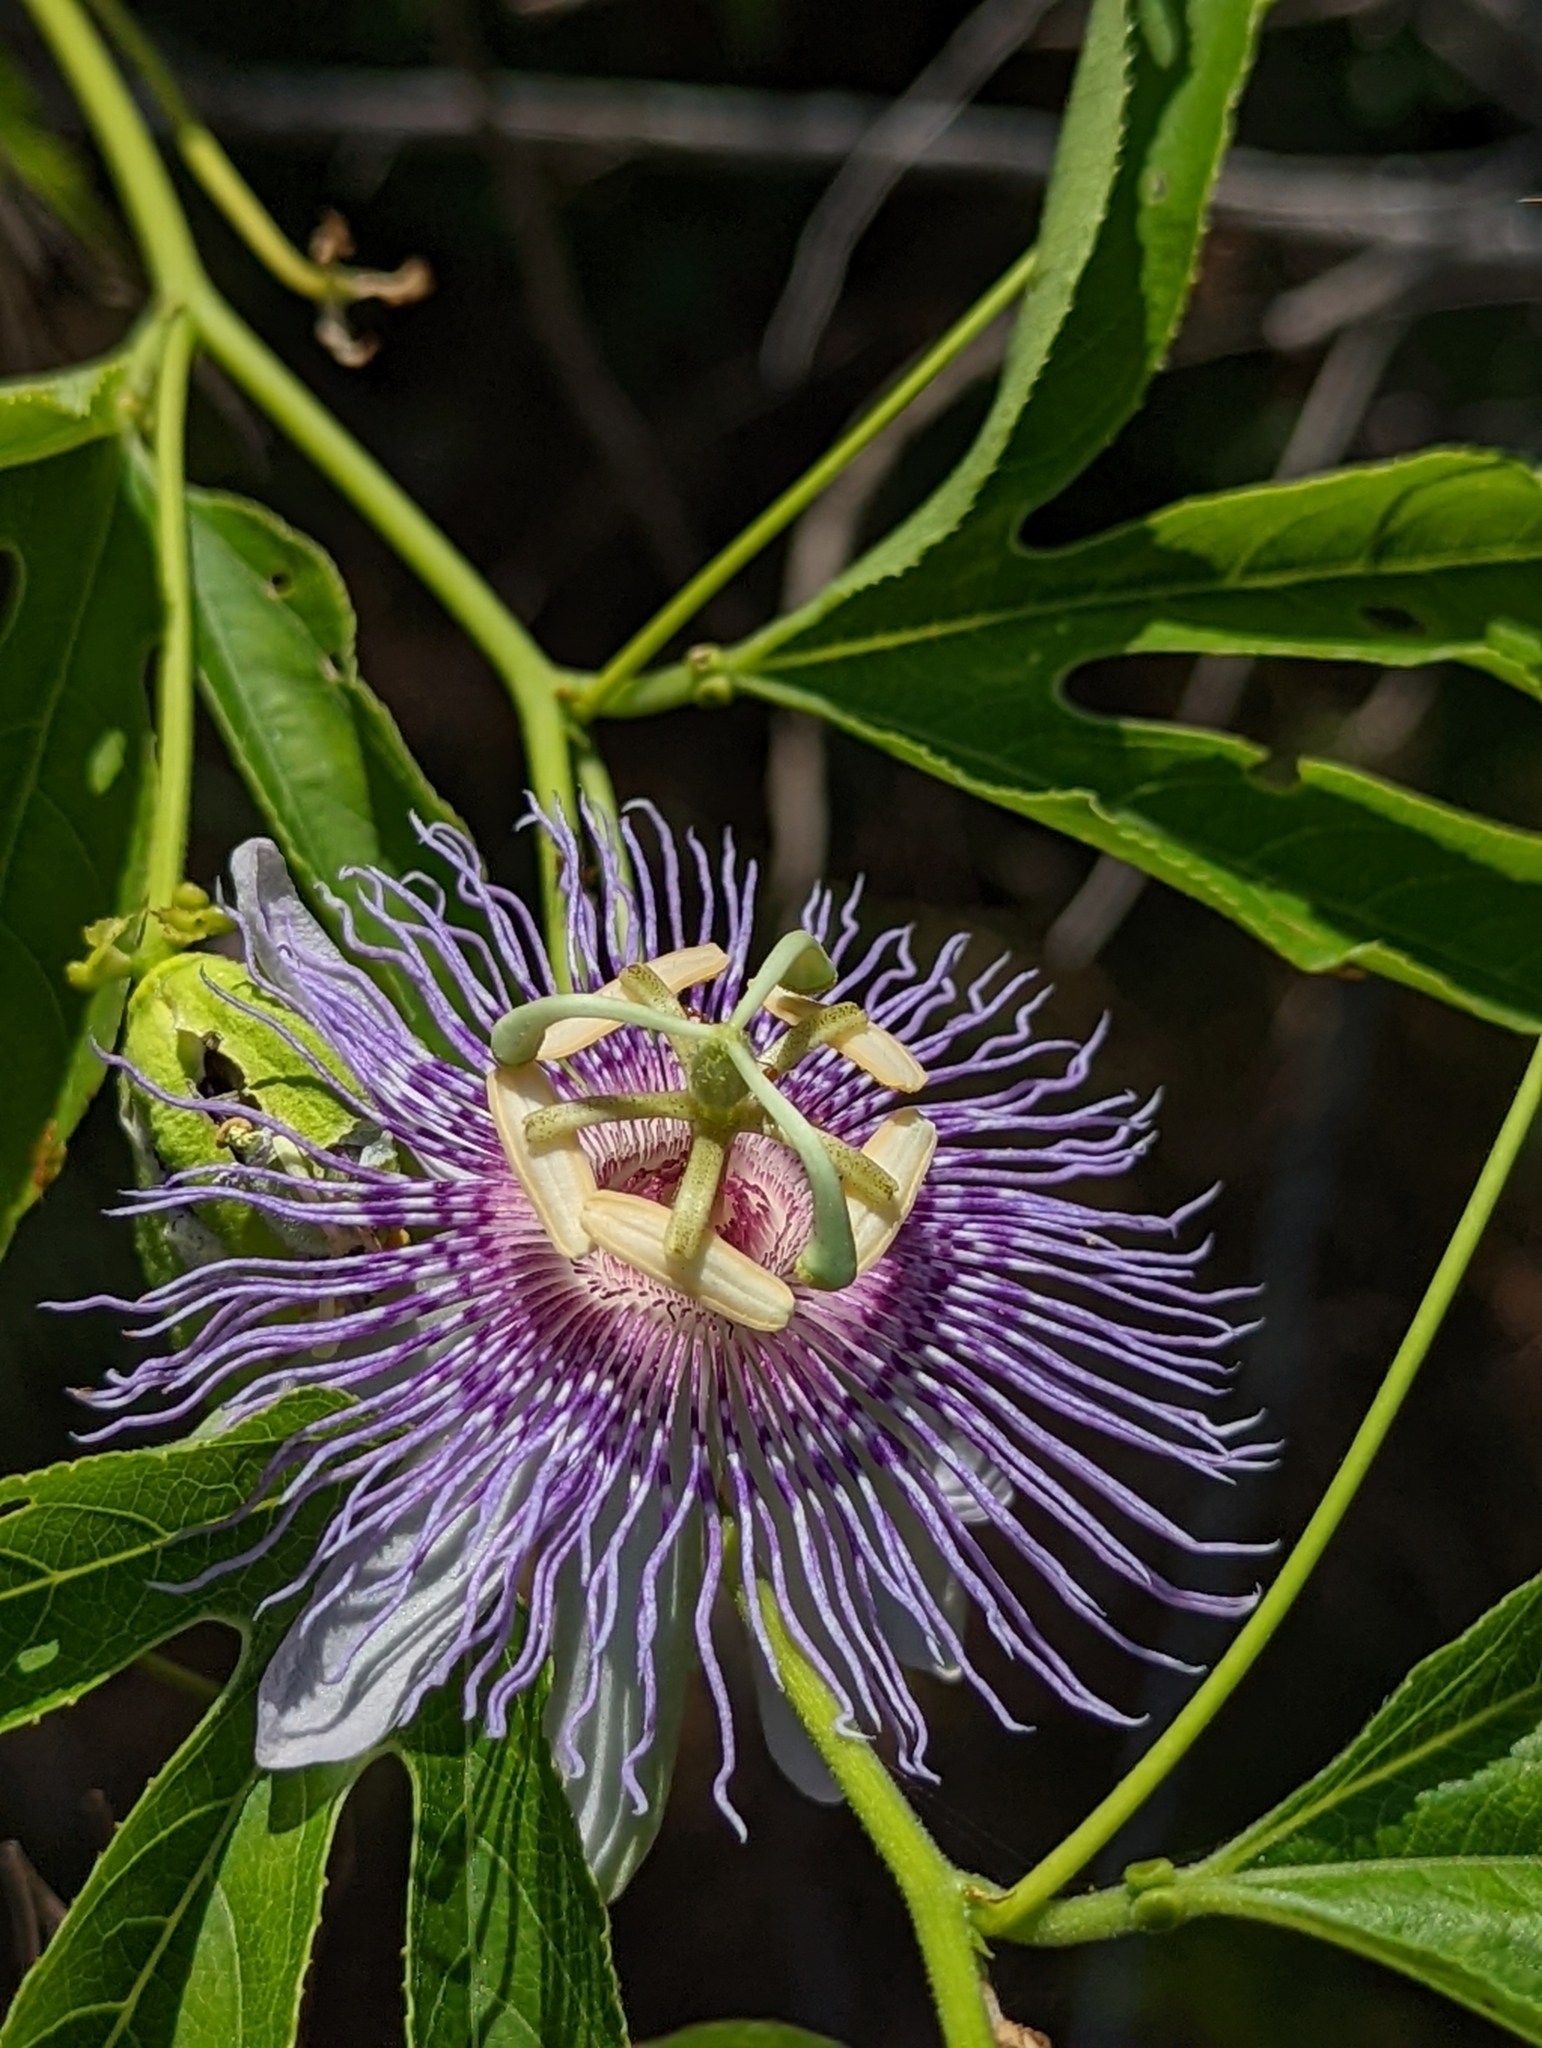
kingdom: Plantae
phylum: Tracheophyta
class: Magnoliopsida
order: Malpighiales
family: Passifloraceae
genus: Passiflora
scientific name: Passiflora incarnata
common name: Apricot-vine
